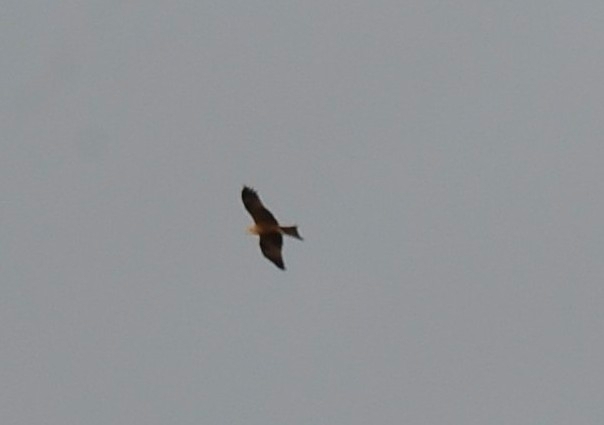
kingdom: Animalia
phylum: Chordata
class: Aves
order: Accipitriformes
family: Accipitridae
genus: Milvus
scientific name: Milvus migrans
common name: Black kite
